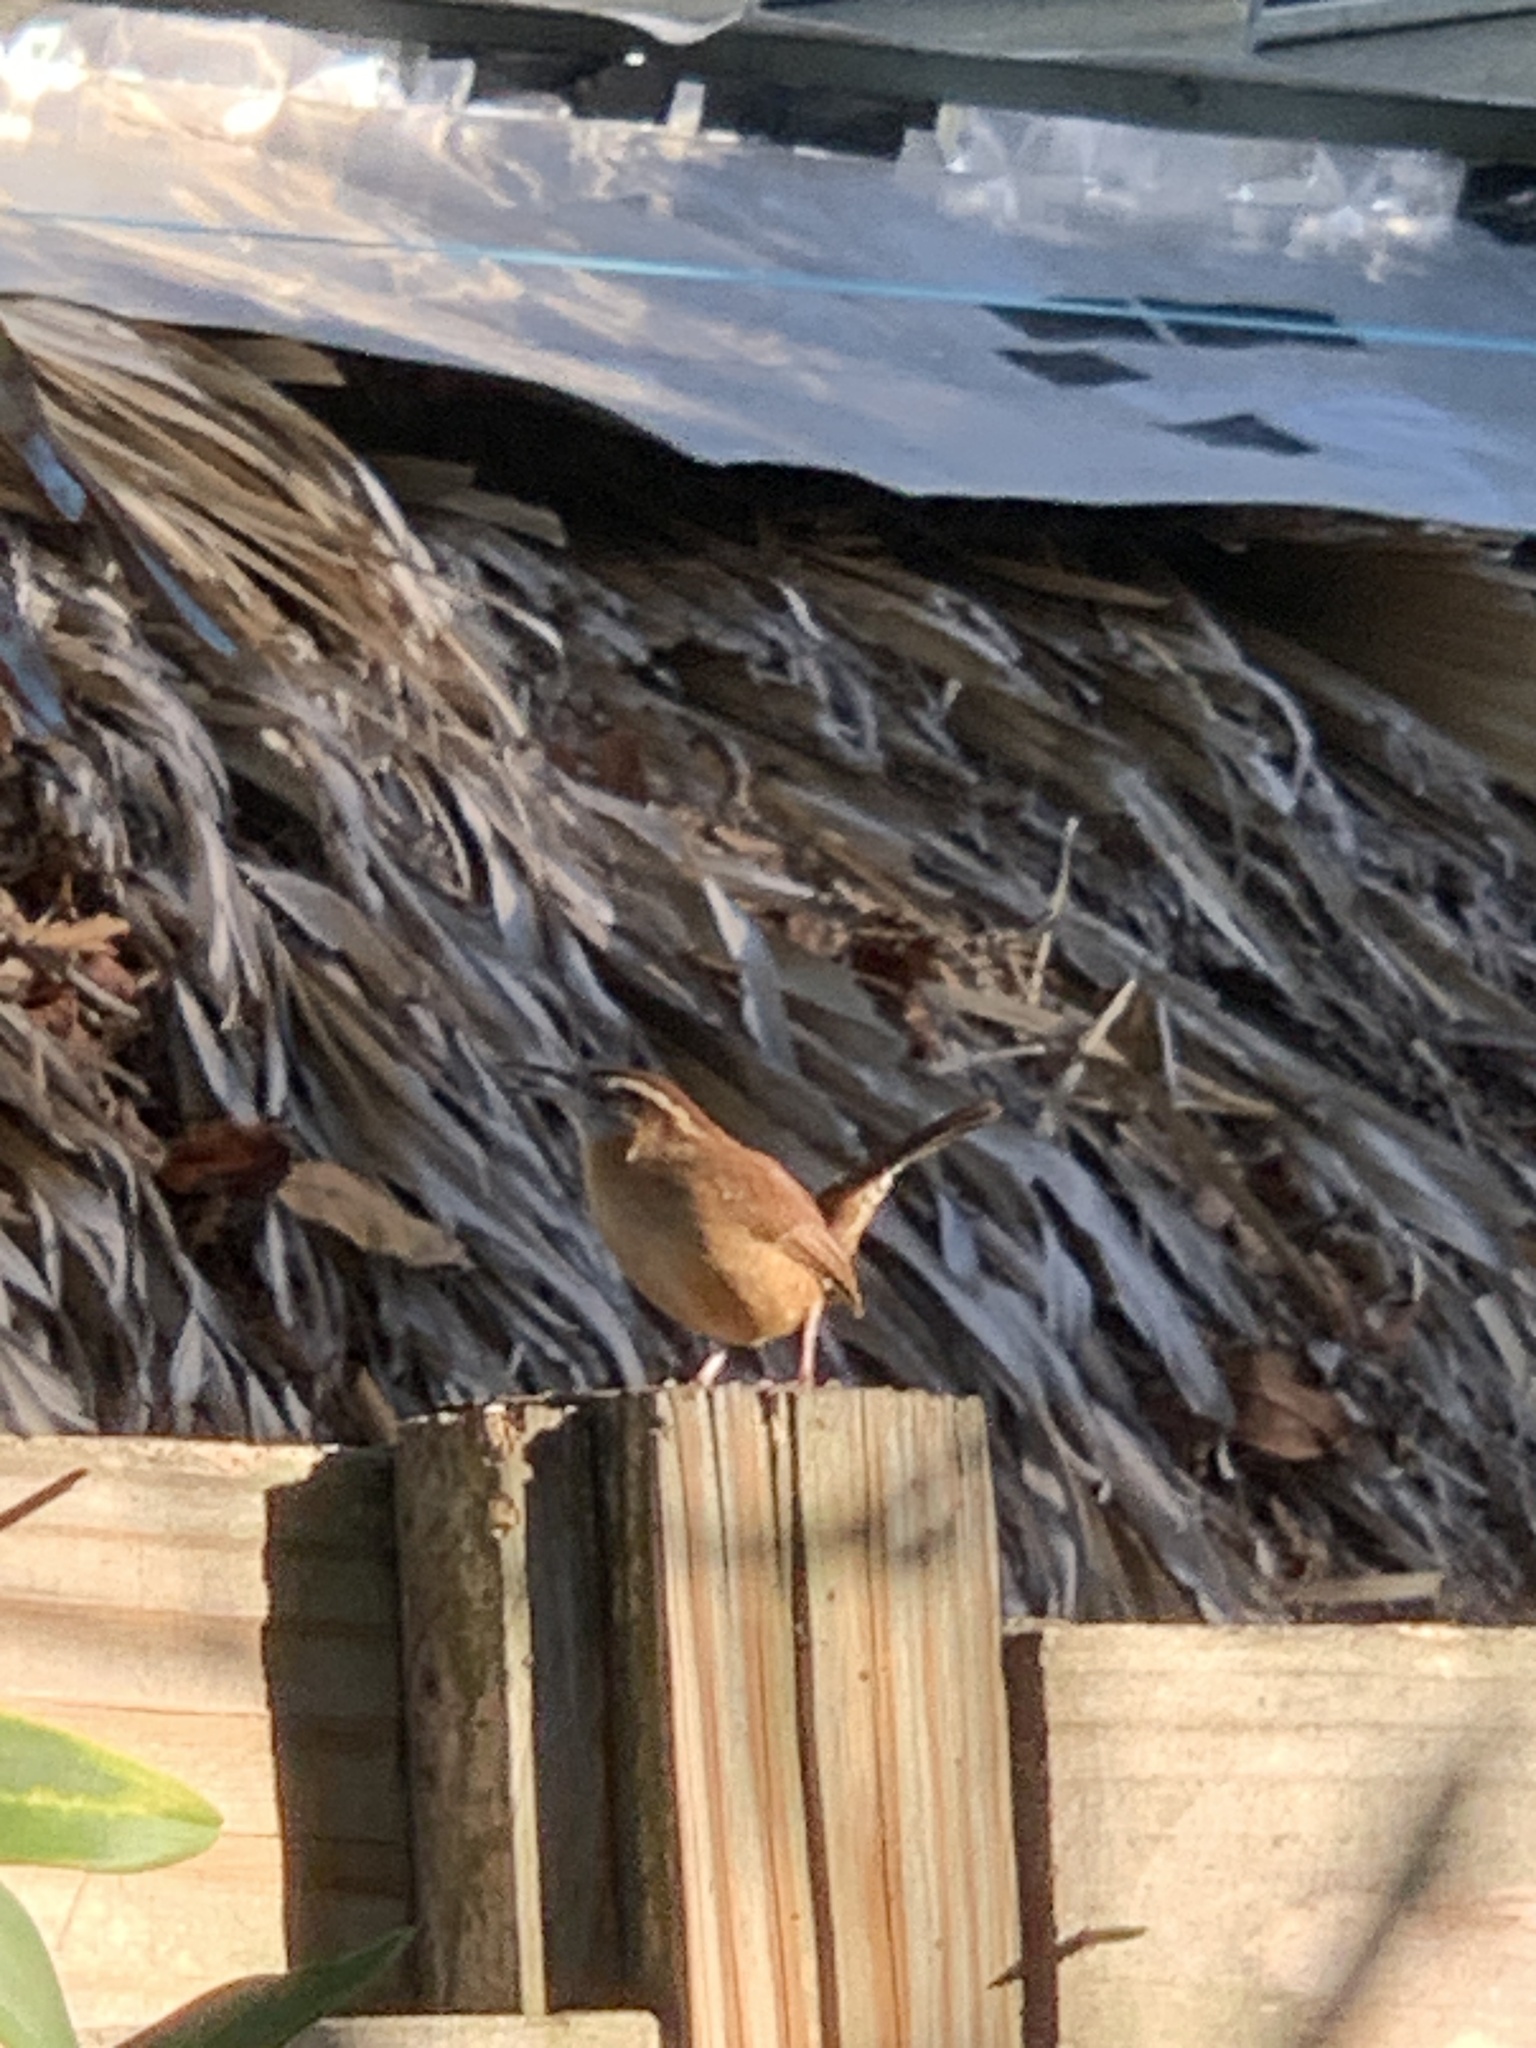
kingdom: Animalia
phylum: Chordata
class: Aves
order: Passeriformes
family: Troglodytidae
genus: Thryothorus
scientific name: Thryothorus ludovicianus
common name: Carolina wren
